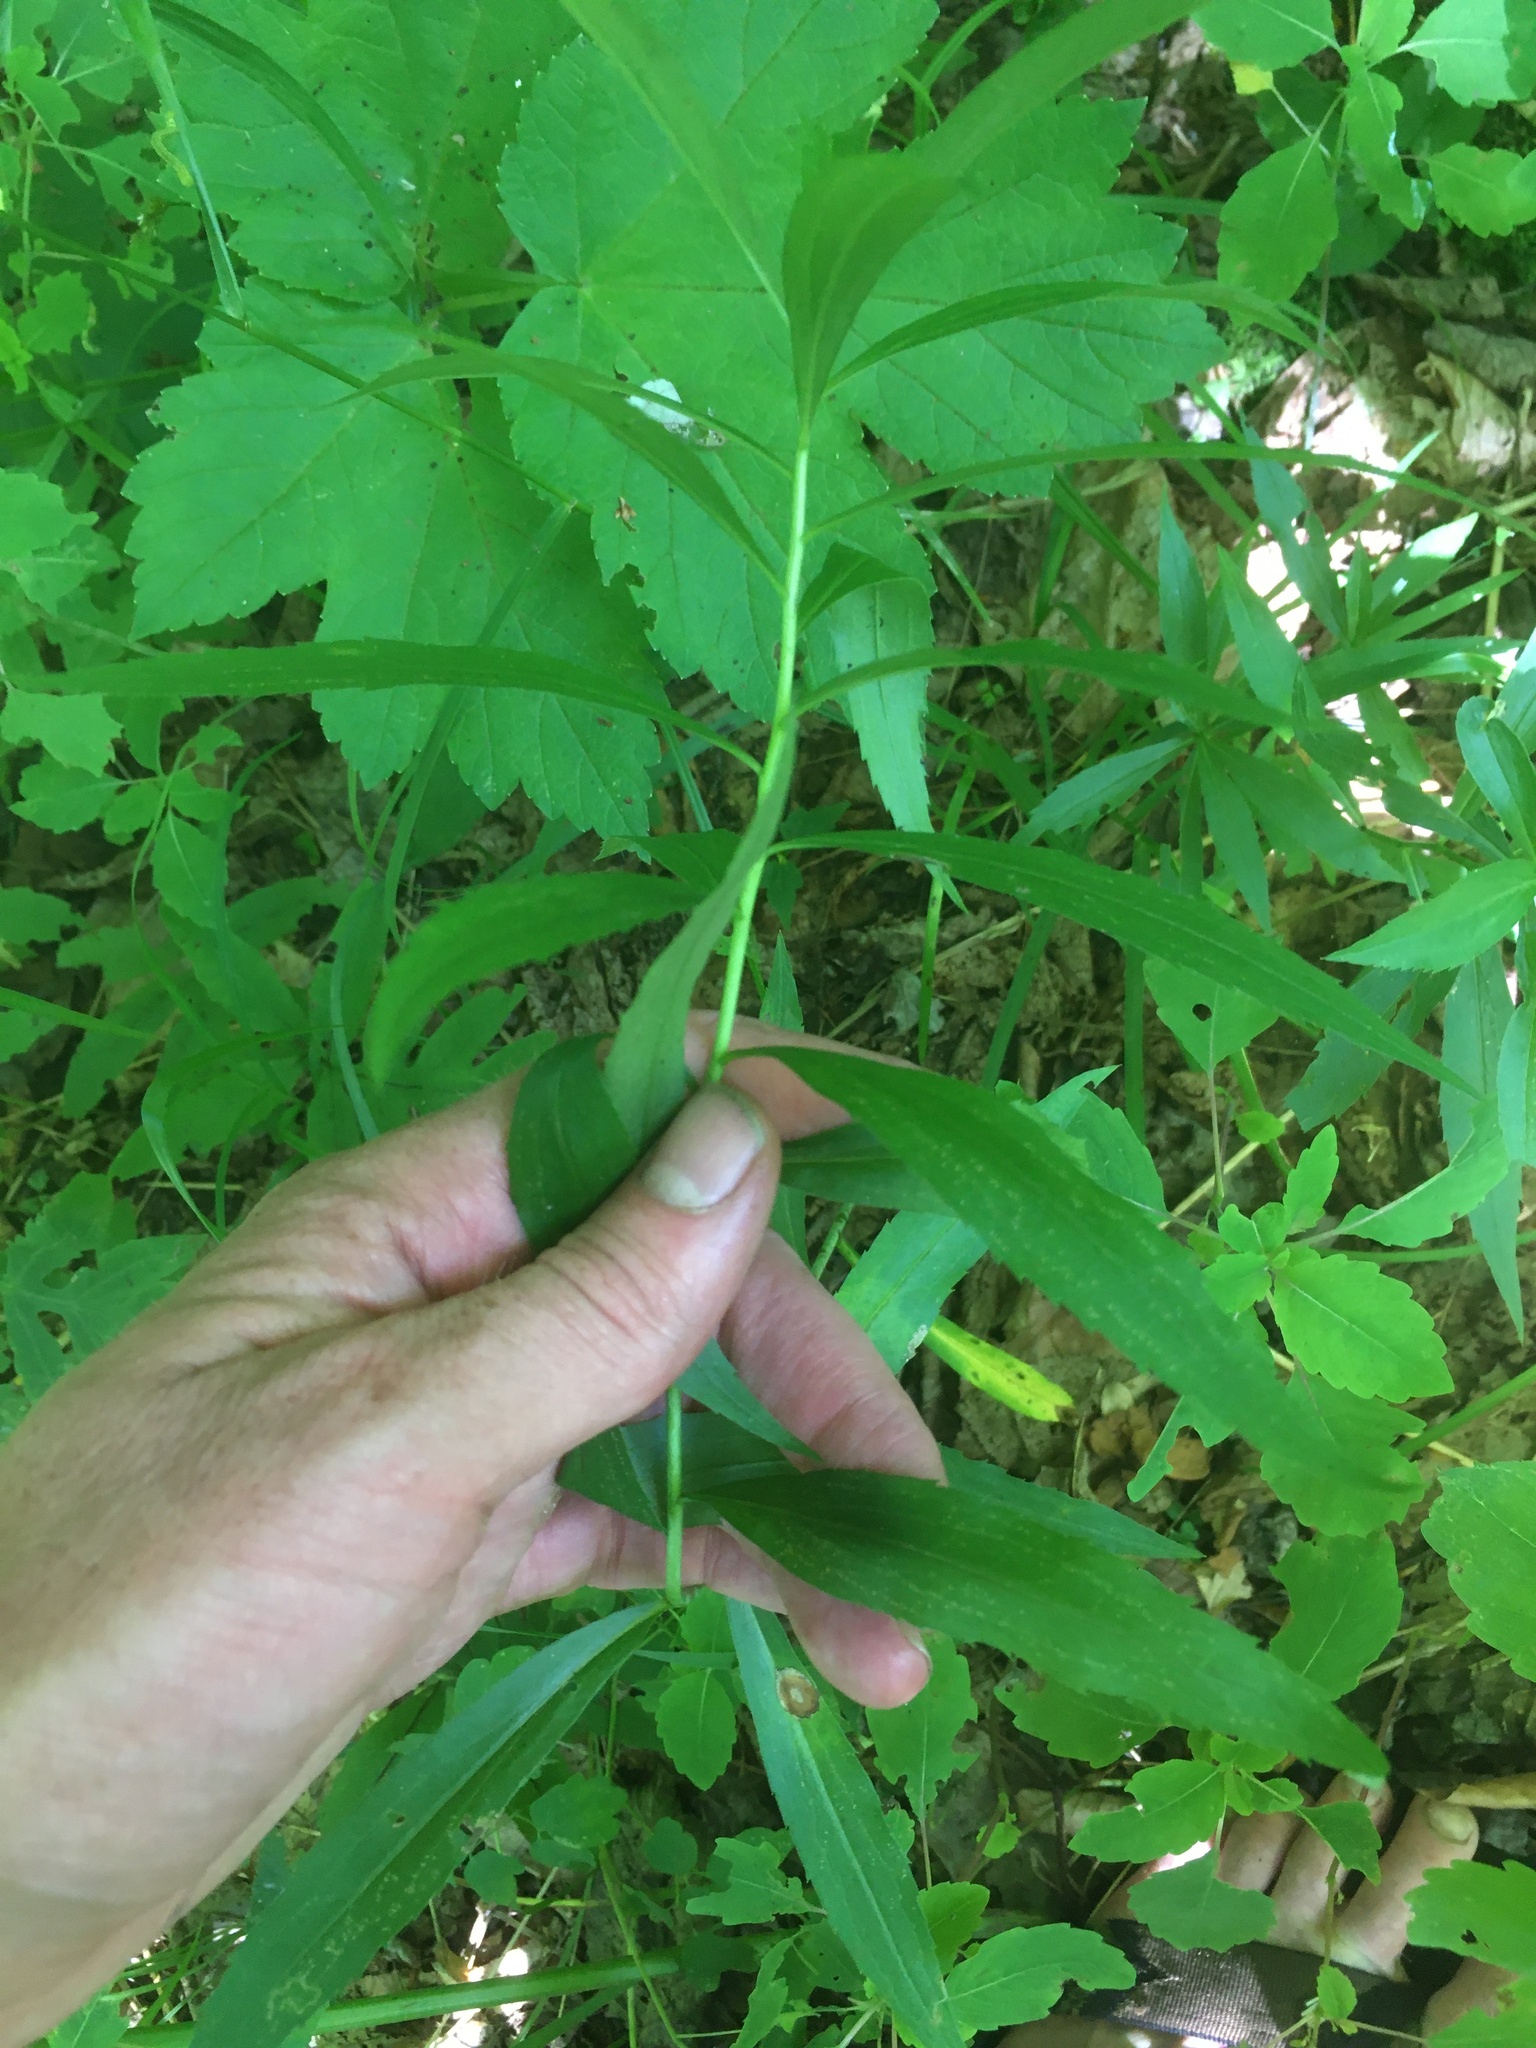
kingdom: Plantae
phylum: Tracheophyta
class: Magnoliopsida
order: Asterales
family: Asteraceae
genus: Solidago
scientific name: Solidago gigantea
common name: Giant goldenrod
